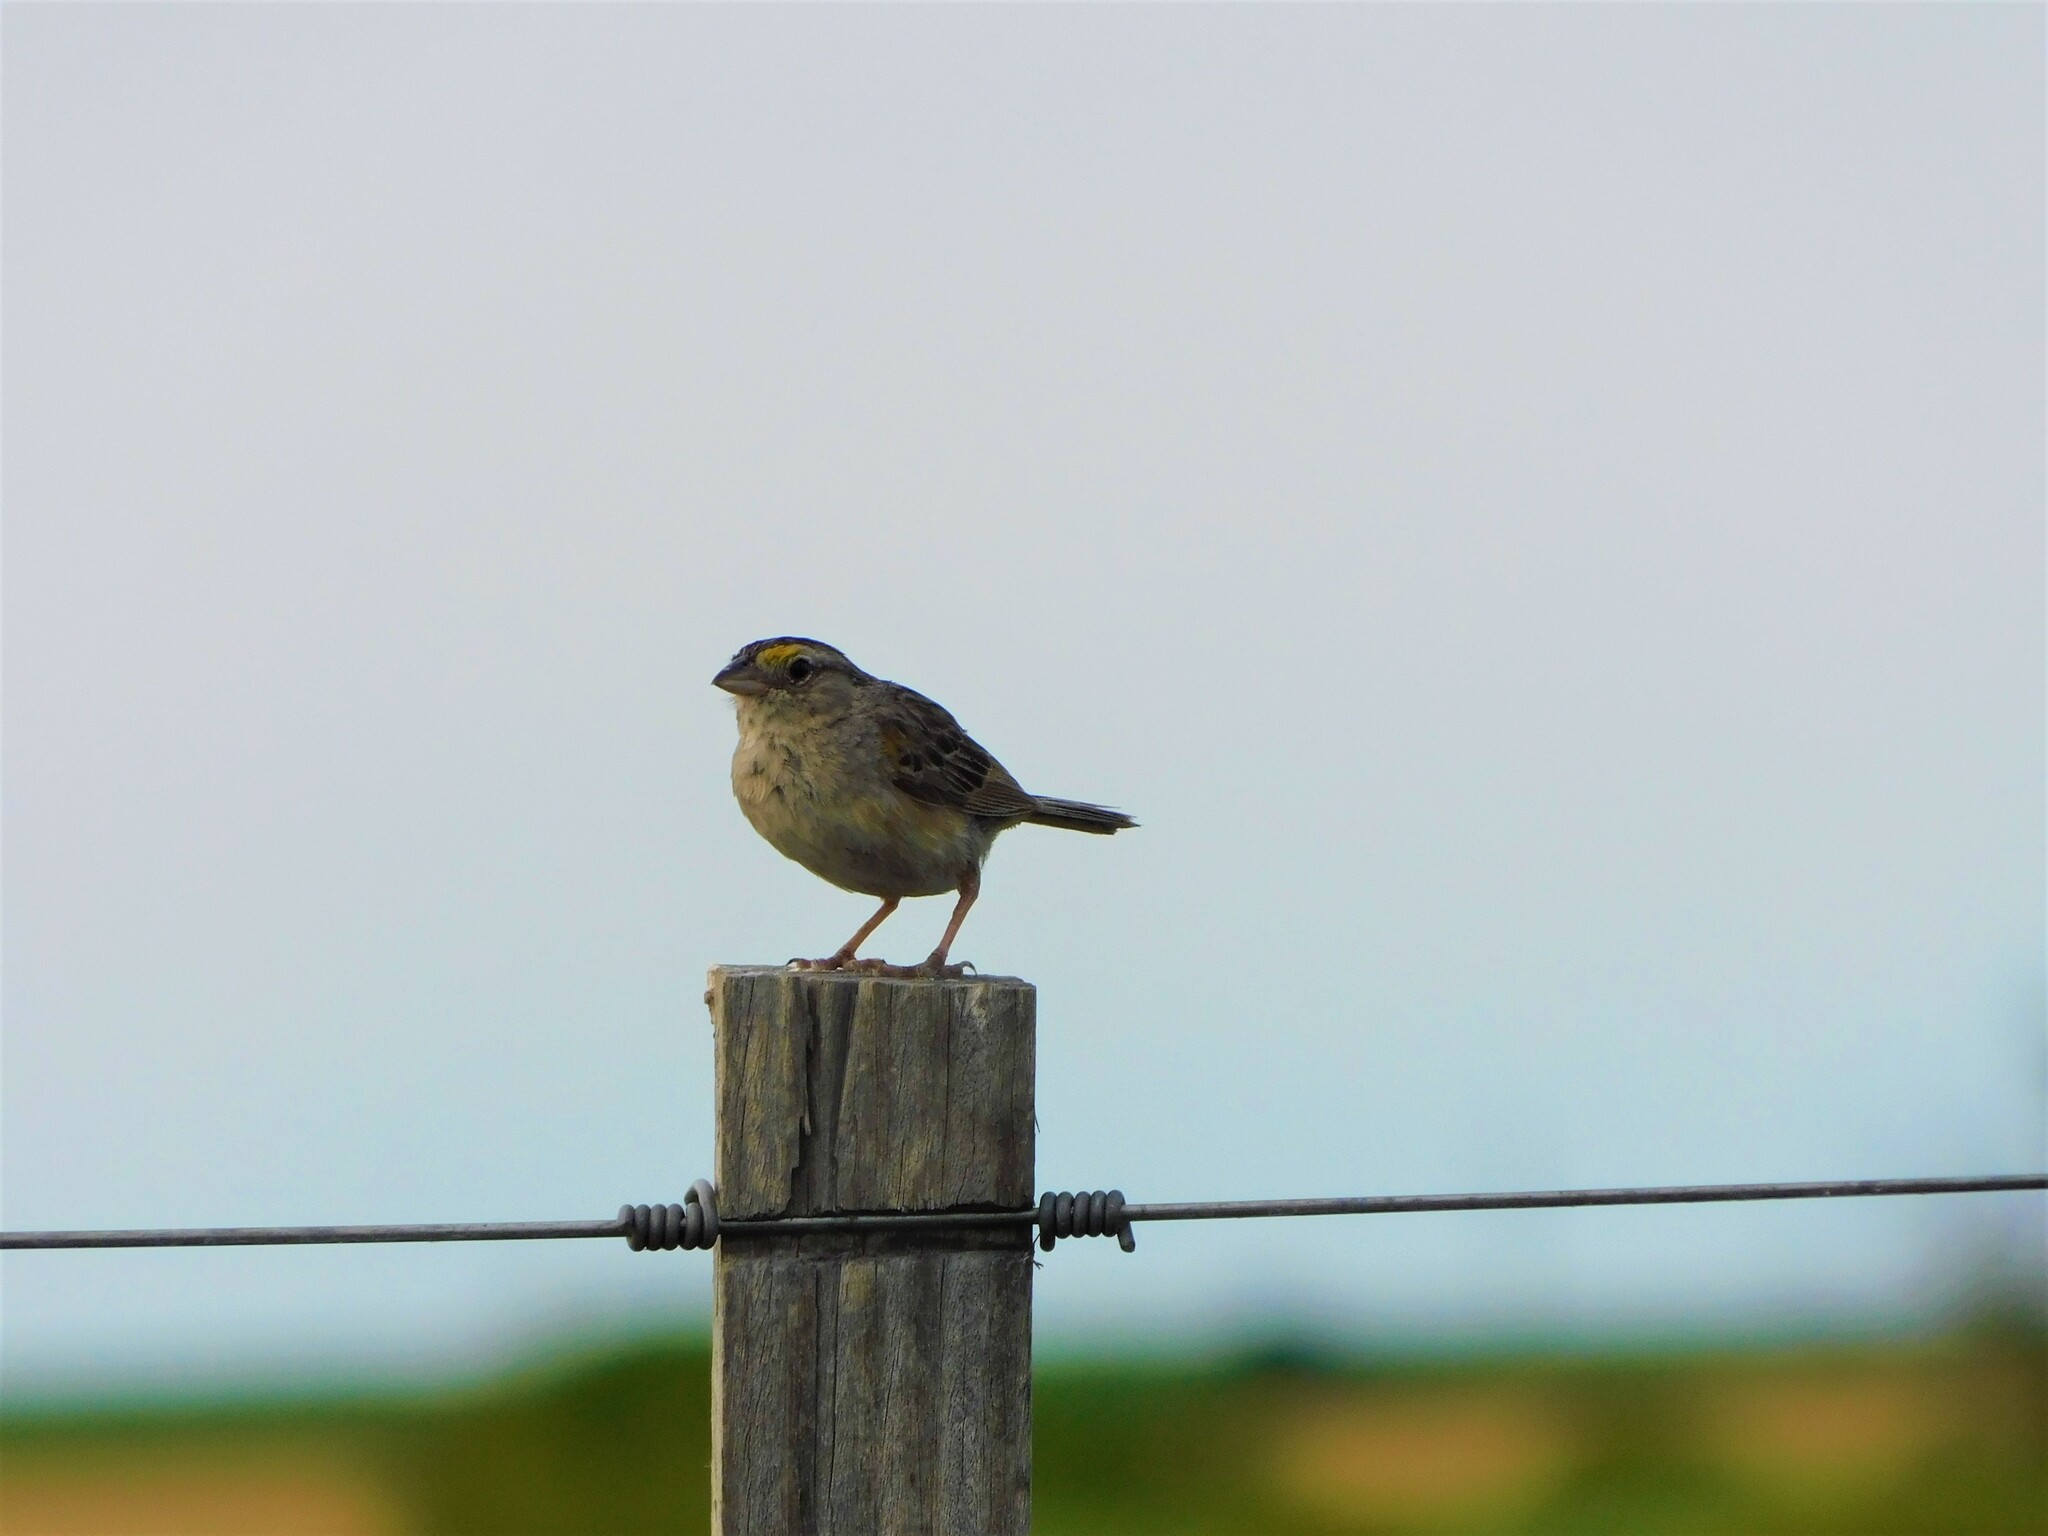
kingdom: Animalia
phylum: Chordata
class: Aves
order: Passeriformes
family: Passerellidae
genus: Ammodramus
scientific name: Ammodramus humeralis
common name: Grassland sparrow
